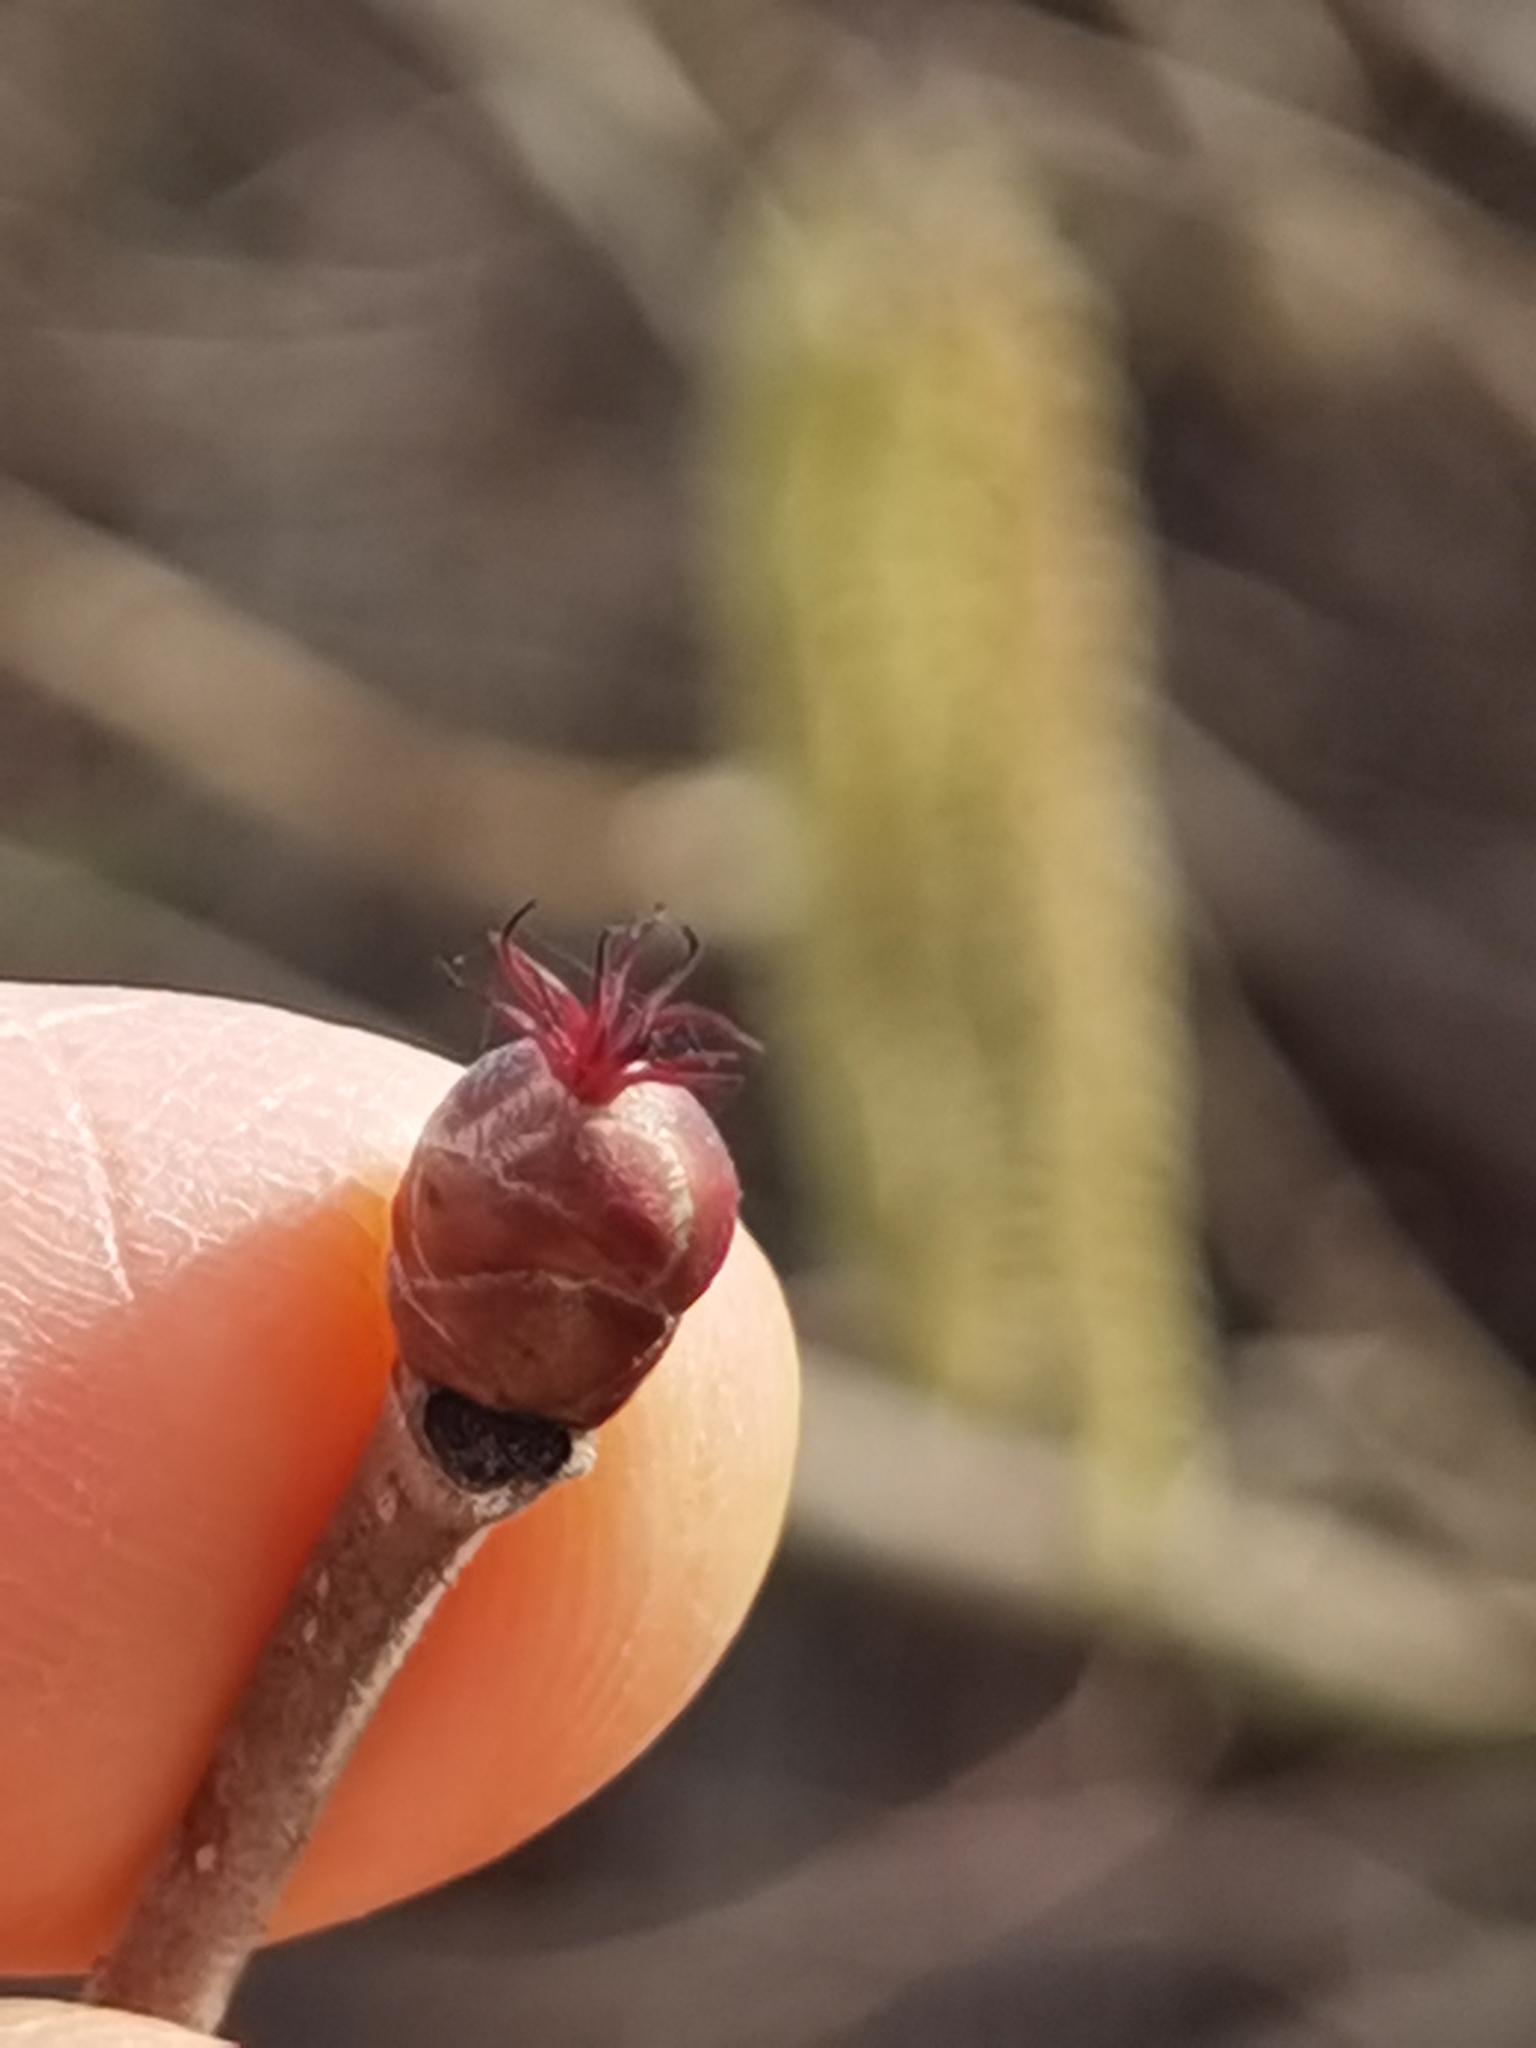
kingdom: Plantae
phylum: Tracheophyta
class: Magnoliopsida
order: Fagales
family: Betulaceae
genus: Corylus
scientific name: Corylus avellana
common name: European hazel
